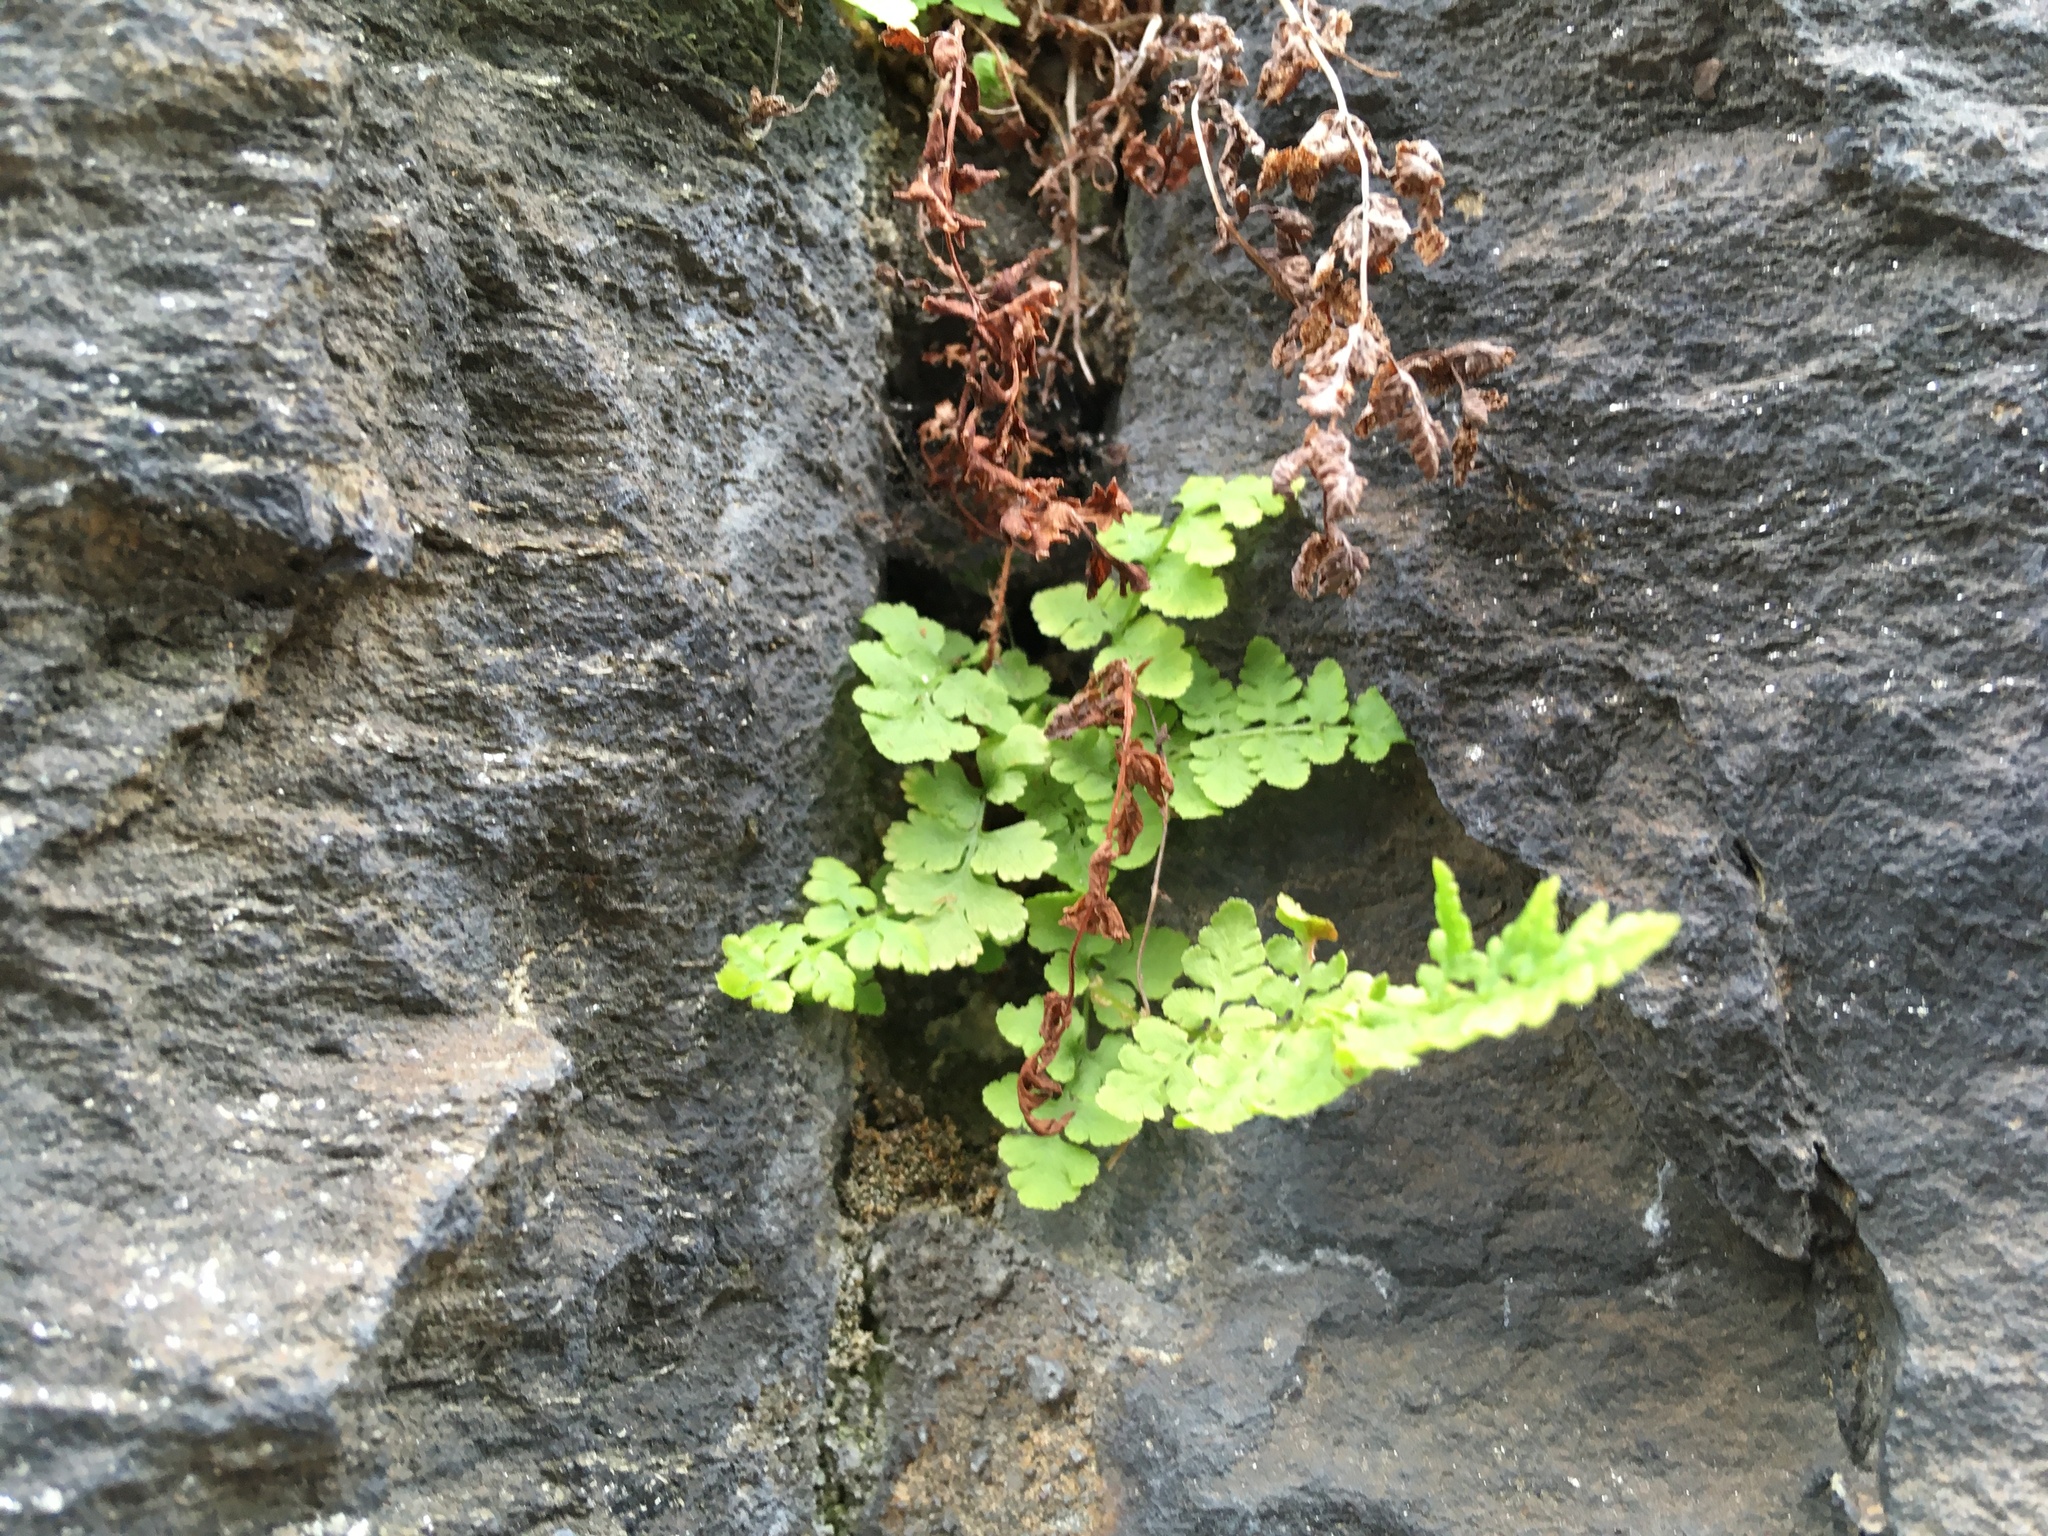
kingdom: Plantae
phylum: Tracheophyta
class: Polypodiopsida
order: Polypodiales
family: Woodsiaceae
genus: Physematium
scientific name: Physematium obtusum
